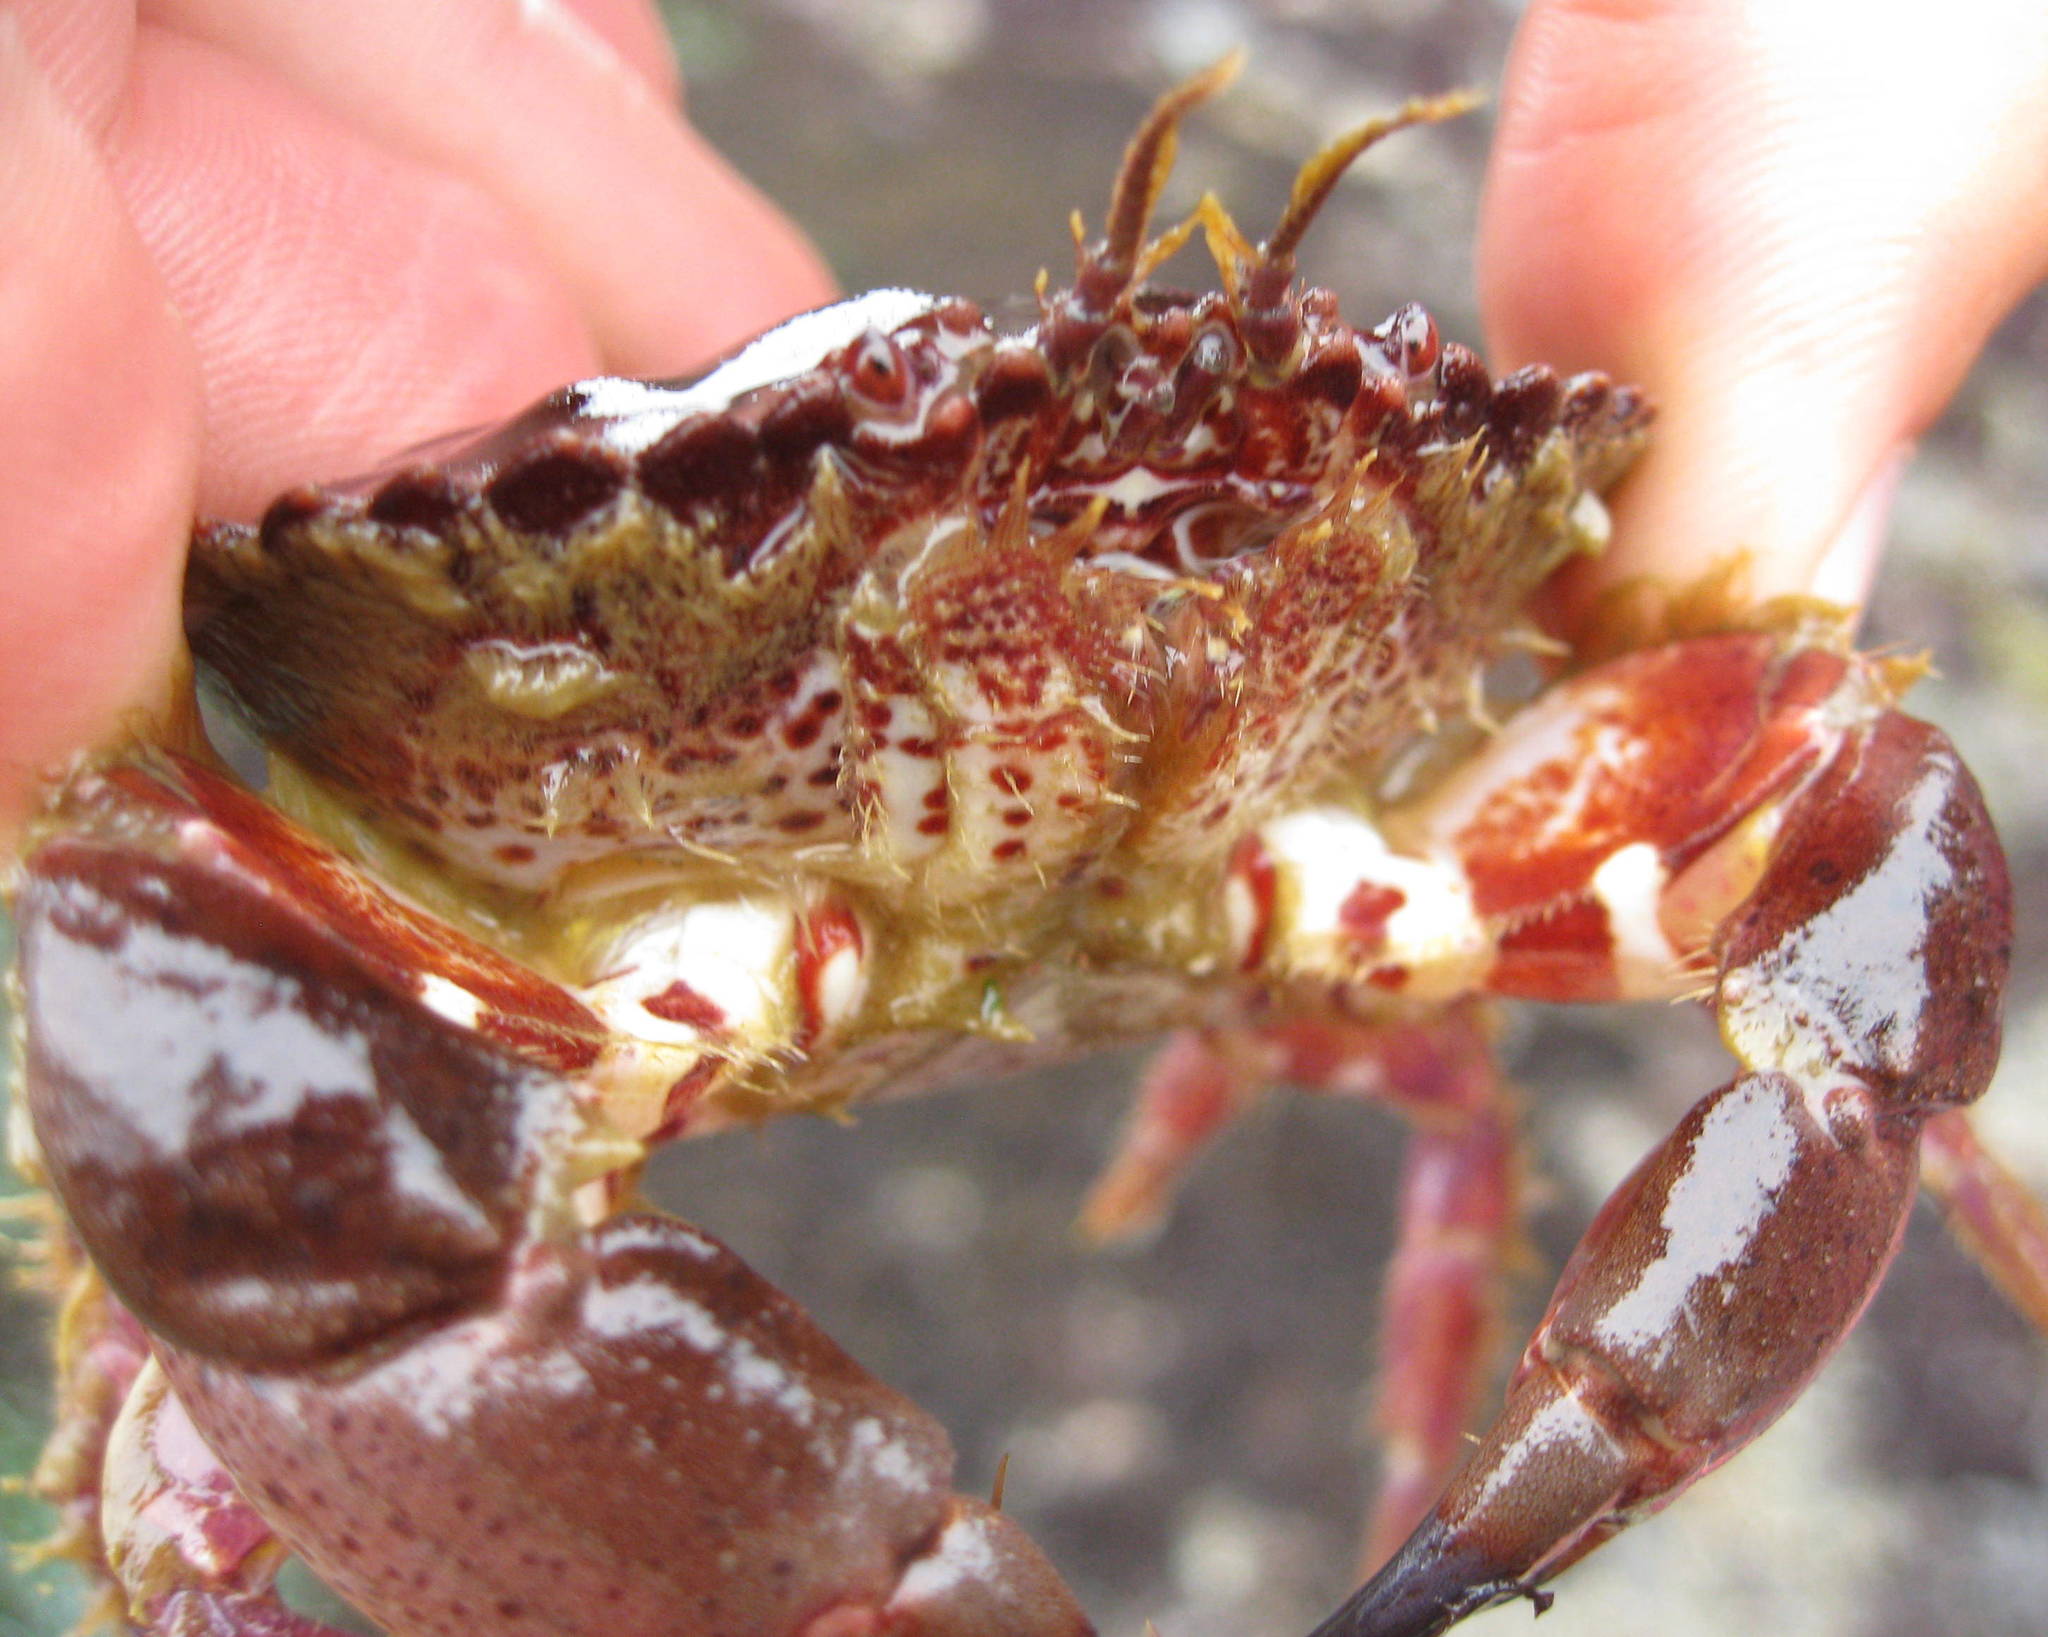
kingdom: Animalia
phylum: Arthropoda
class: Malacostraca
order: Decapoda
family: Cancridae
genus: Romaleon
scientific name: Romaleon antennarium
